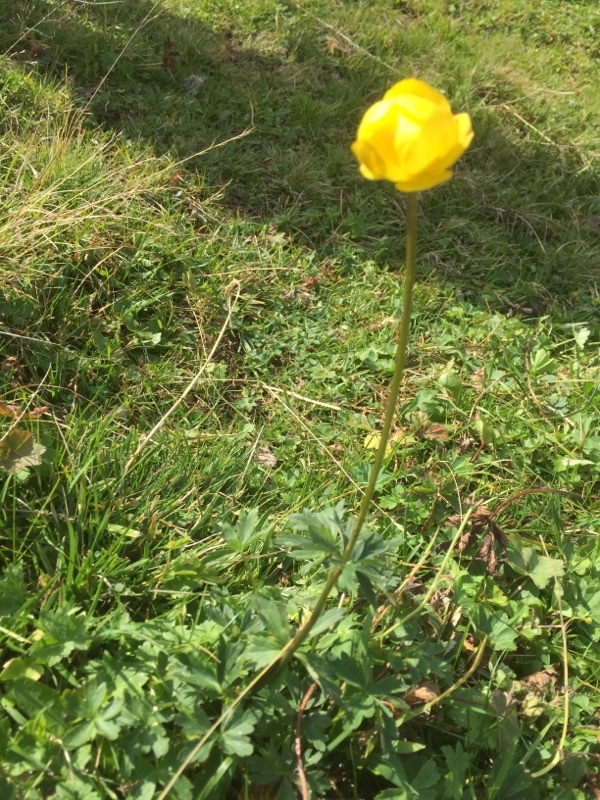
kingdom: Plantae
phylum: Tracheophyta
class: Magnoliopsida
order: Ranunculales
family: Ranunculaceae
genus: Trollius
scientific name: Trollius europaeus
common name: European globeflower
